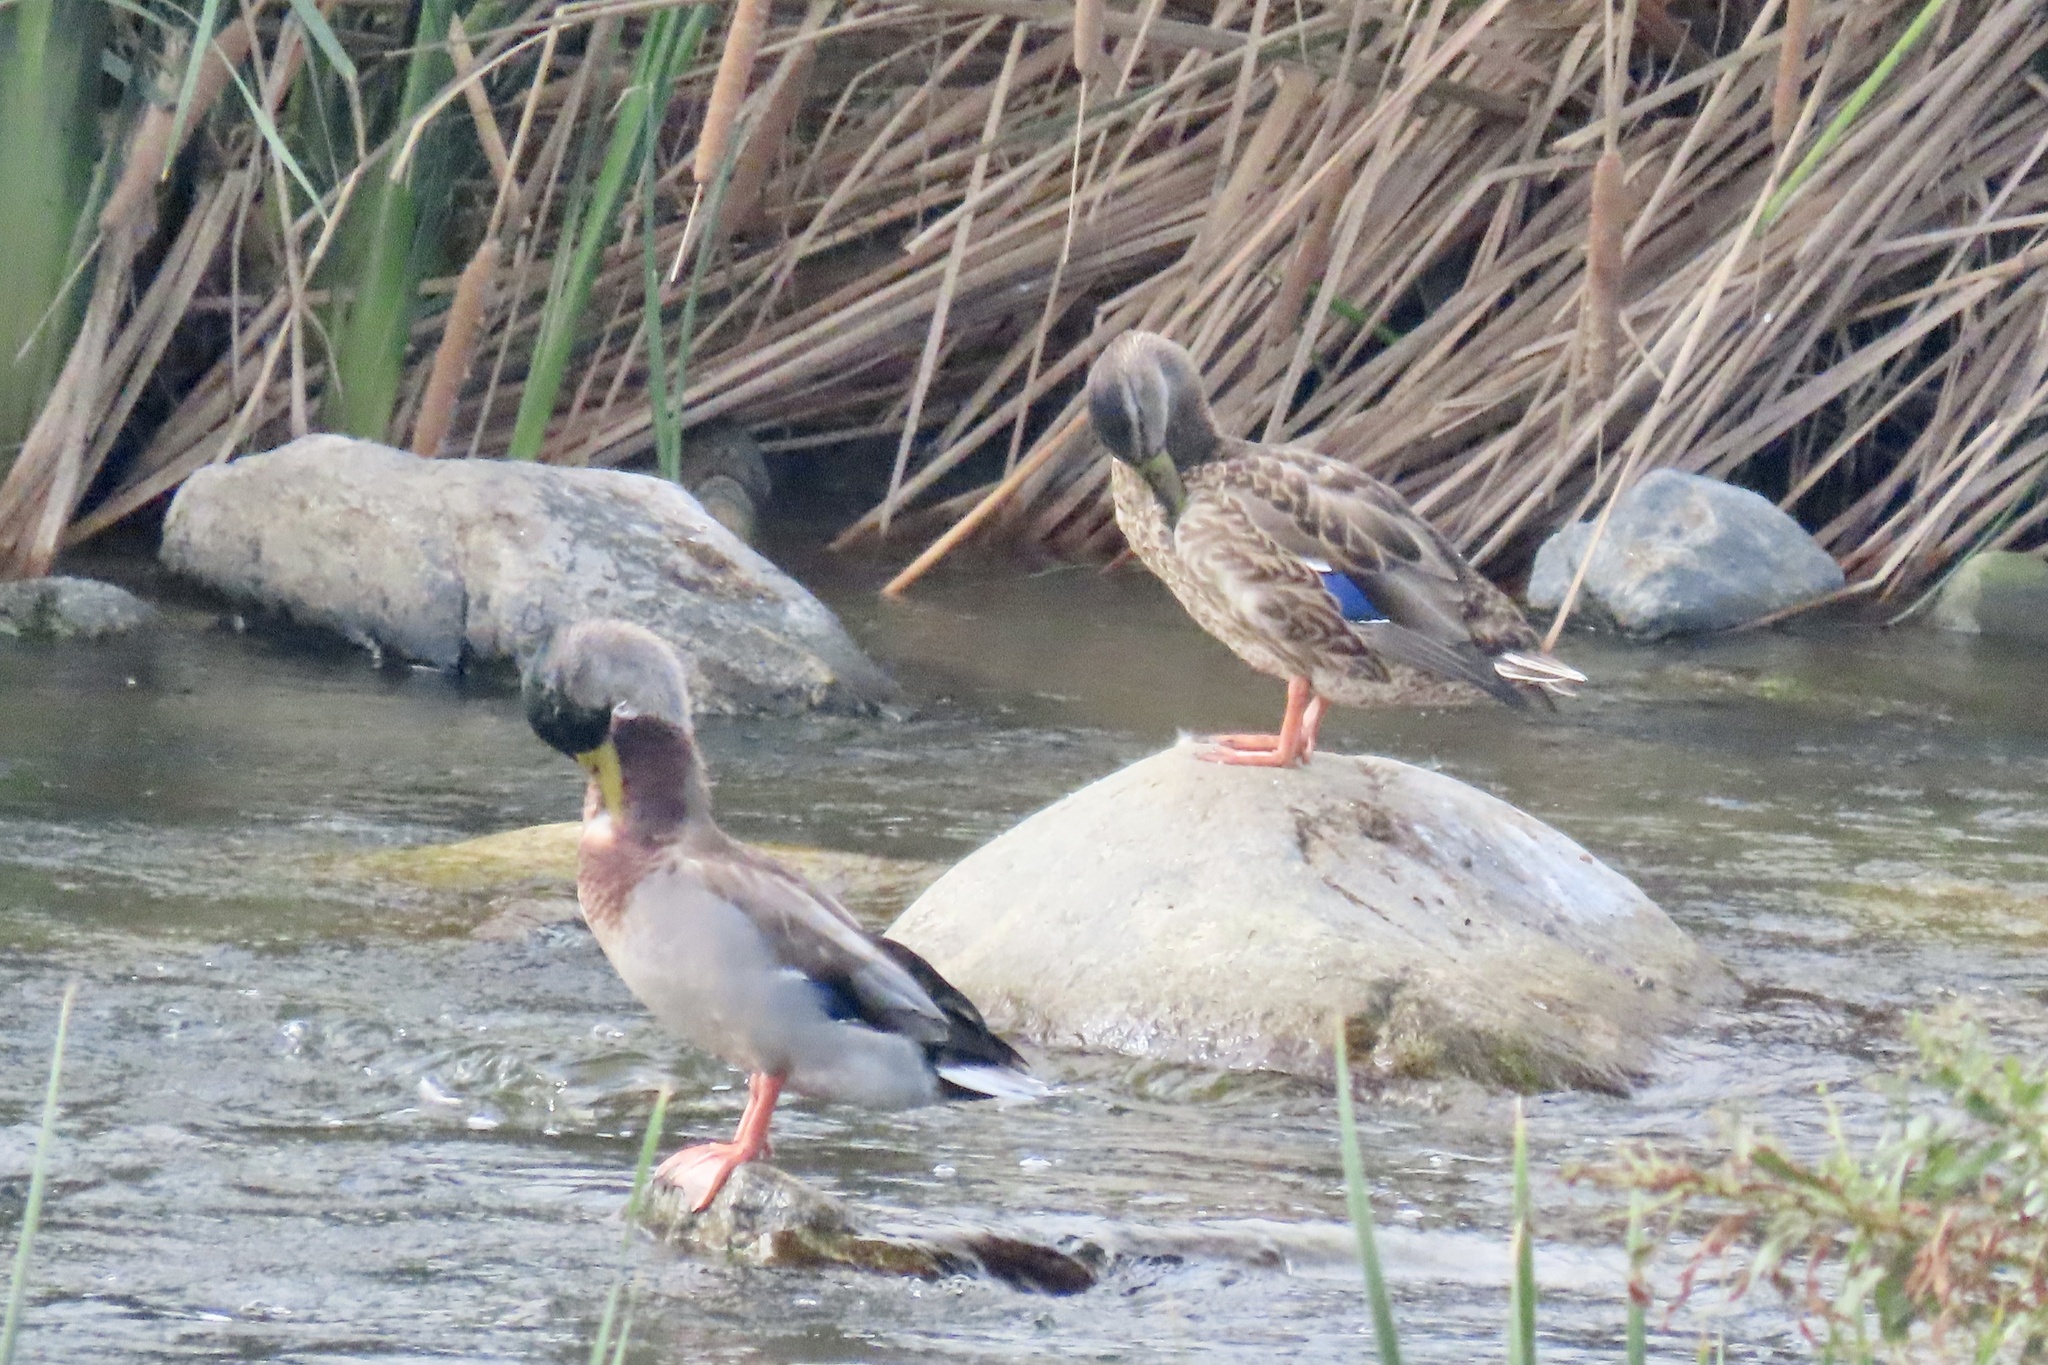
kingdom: Animalia
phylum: Chordata
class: Aves
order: Anseriformes
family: Anatidae
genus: Anas
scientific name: Anas platyrhynchos
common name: Mallard
